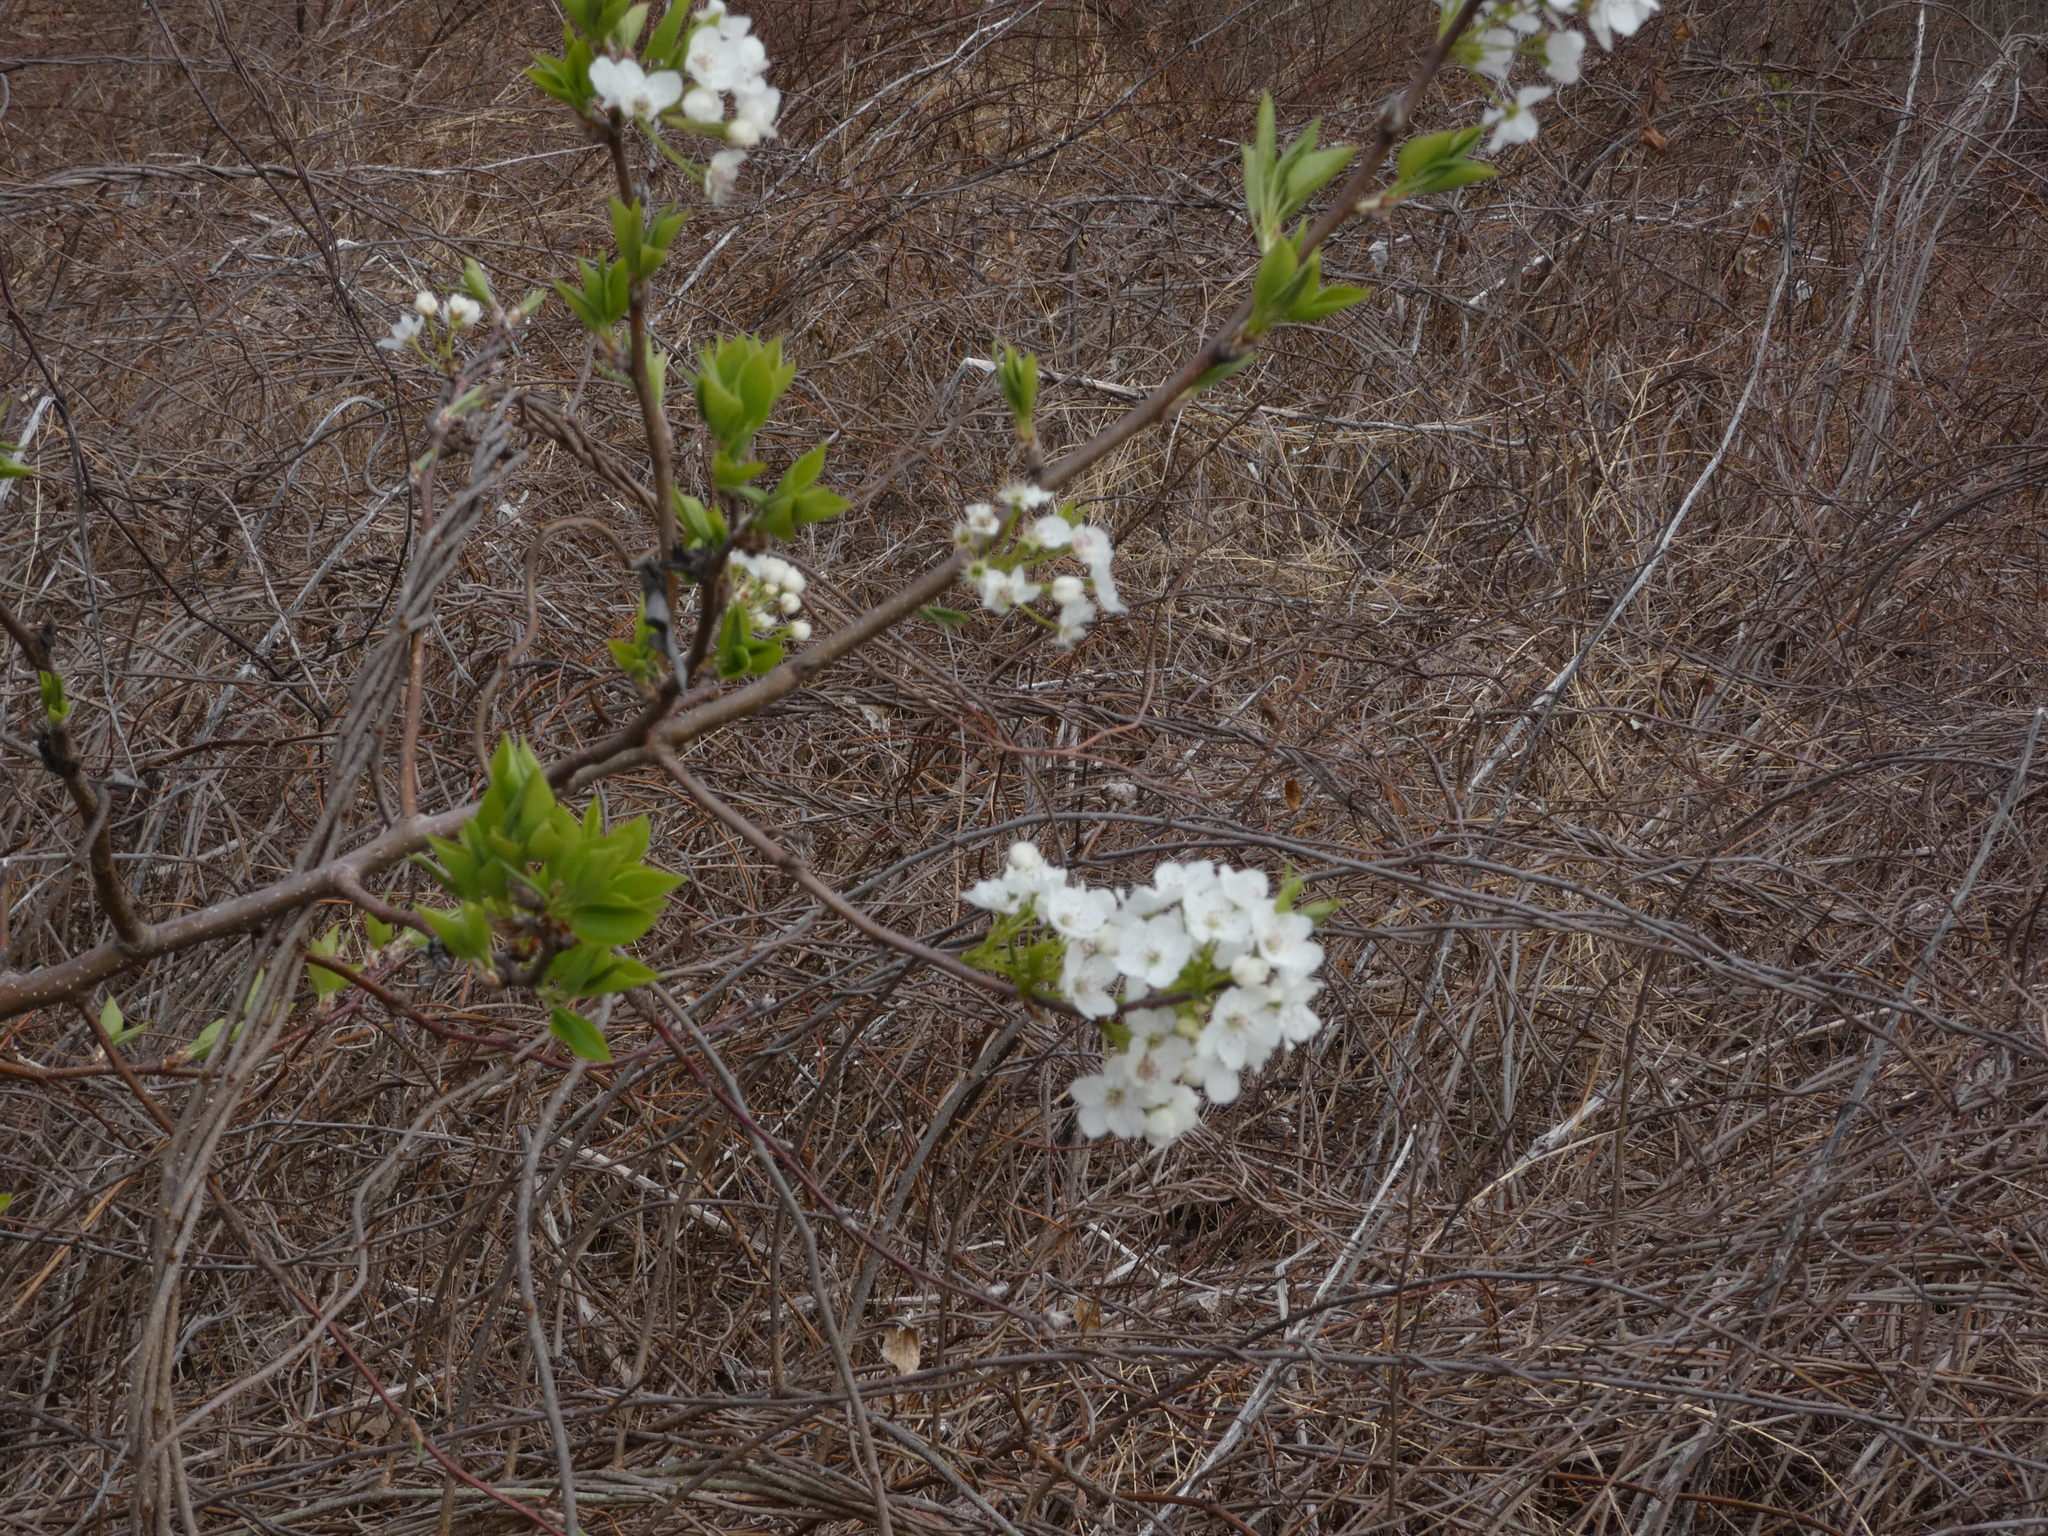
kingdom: Plantae
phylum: Tracheophyta
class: Magnoliopsida
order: Rosales
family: Rosaceae
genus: Pyrus
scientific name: Pyrus calleryana
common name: Callery pear
